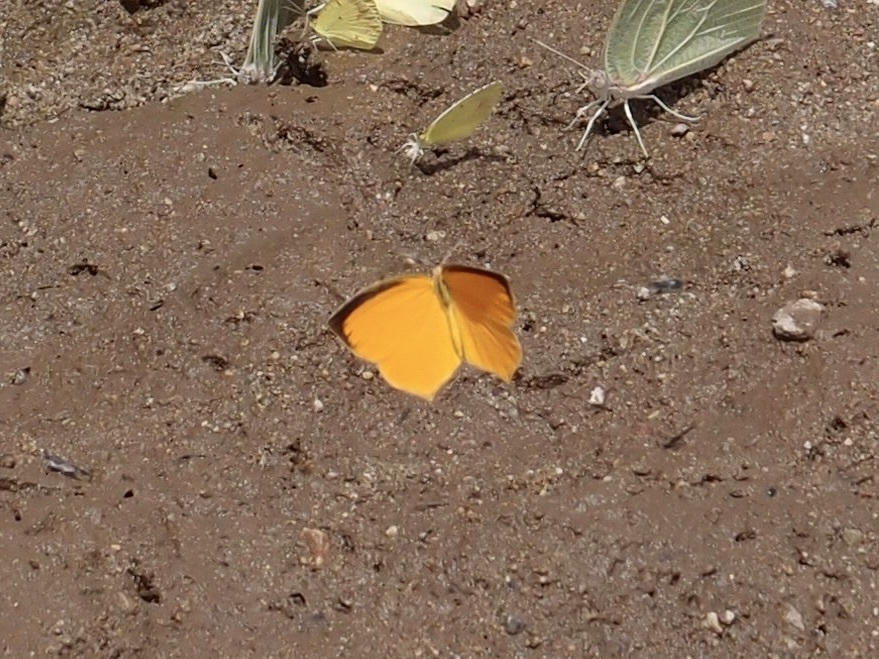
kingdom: Animalia
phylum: Arthropoda
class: Insecta
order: Lepidoptera
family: Pieridae
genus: Pyrisitia
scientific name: Pyrisitia proterpia
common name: Tailed orange
